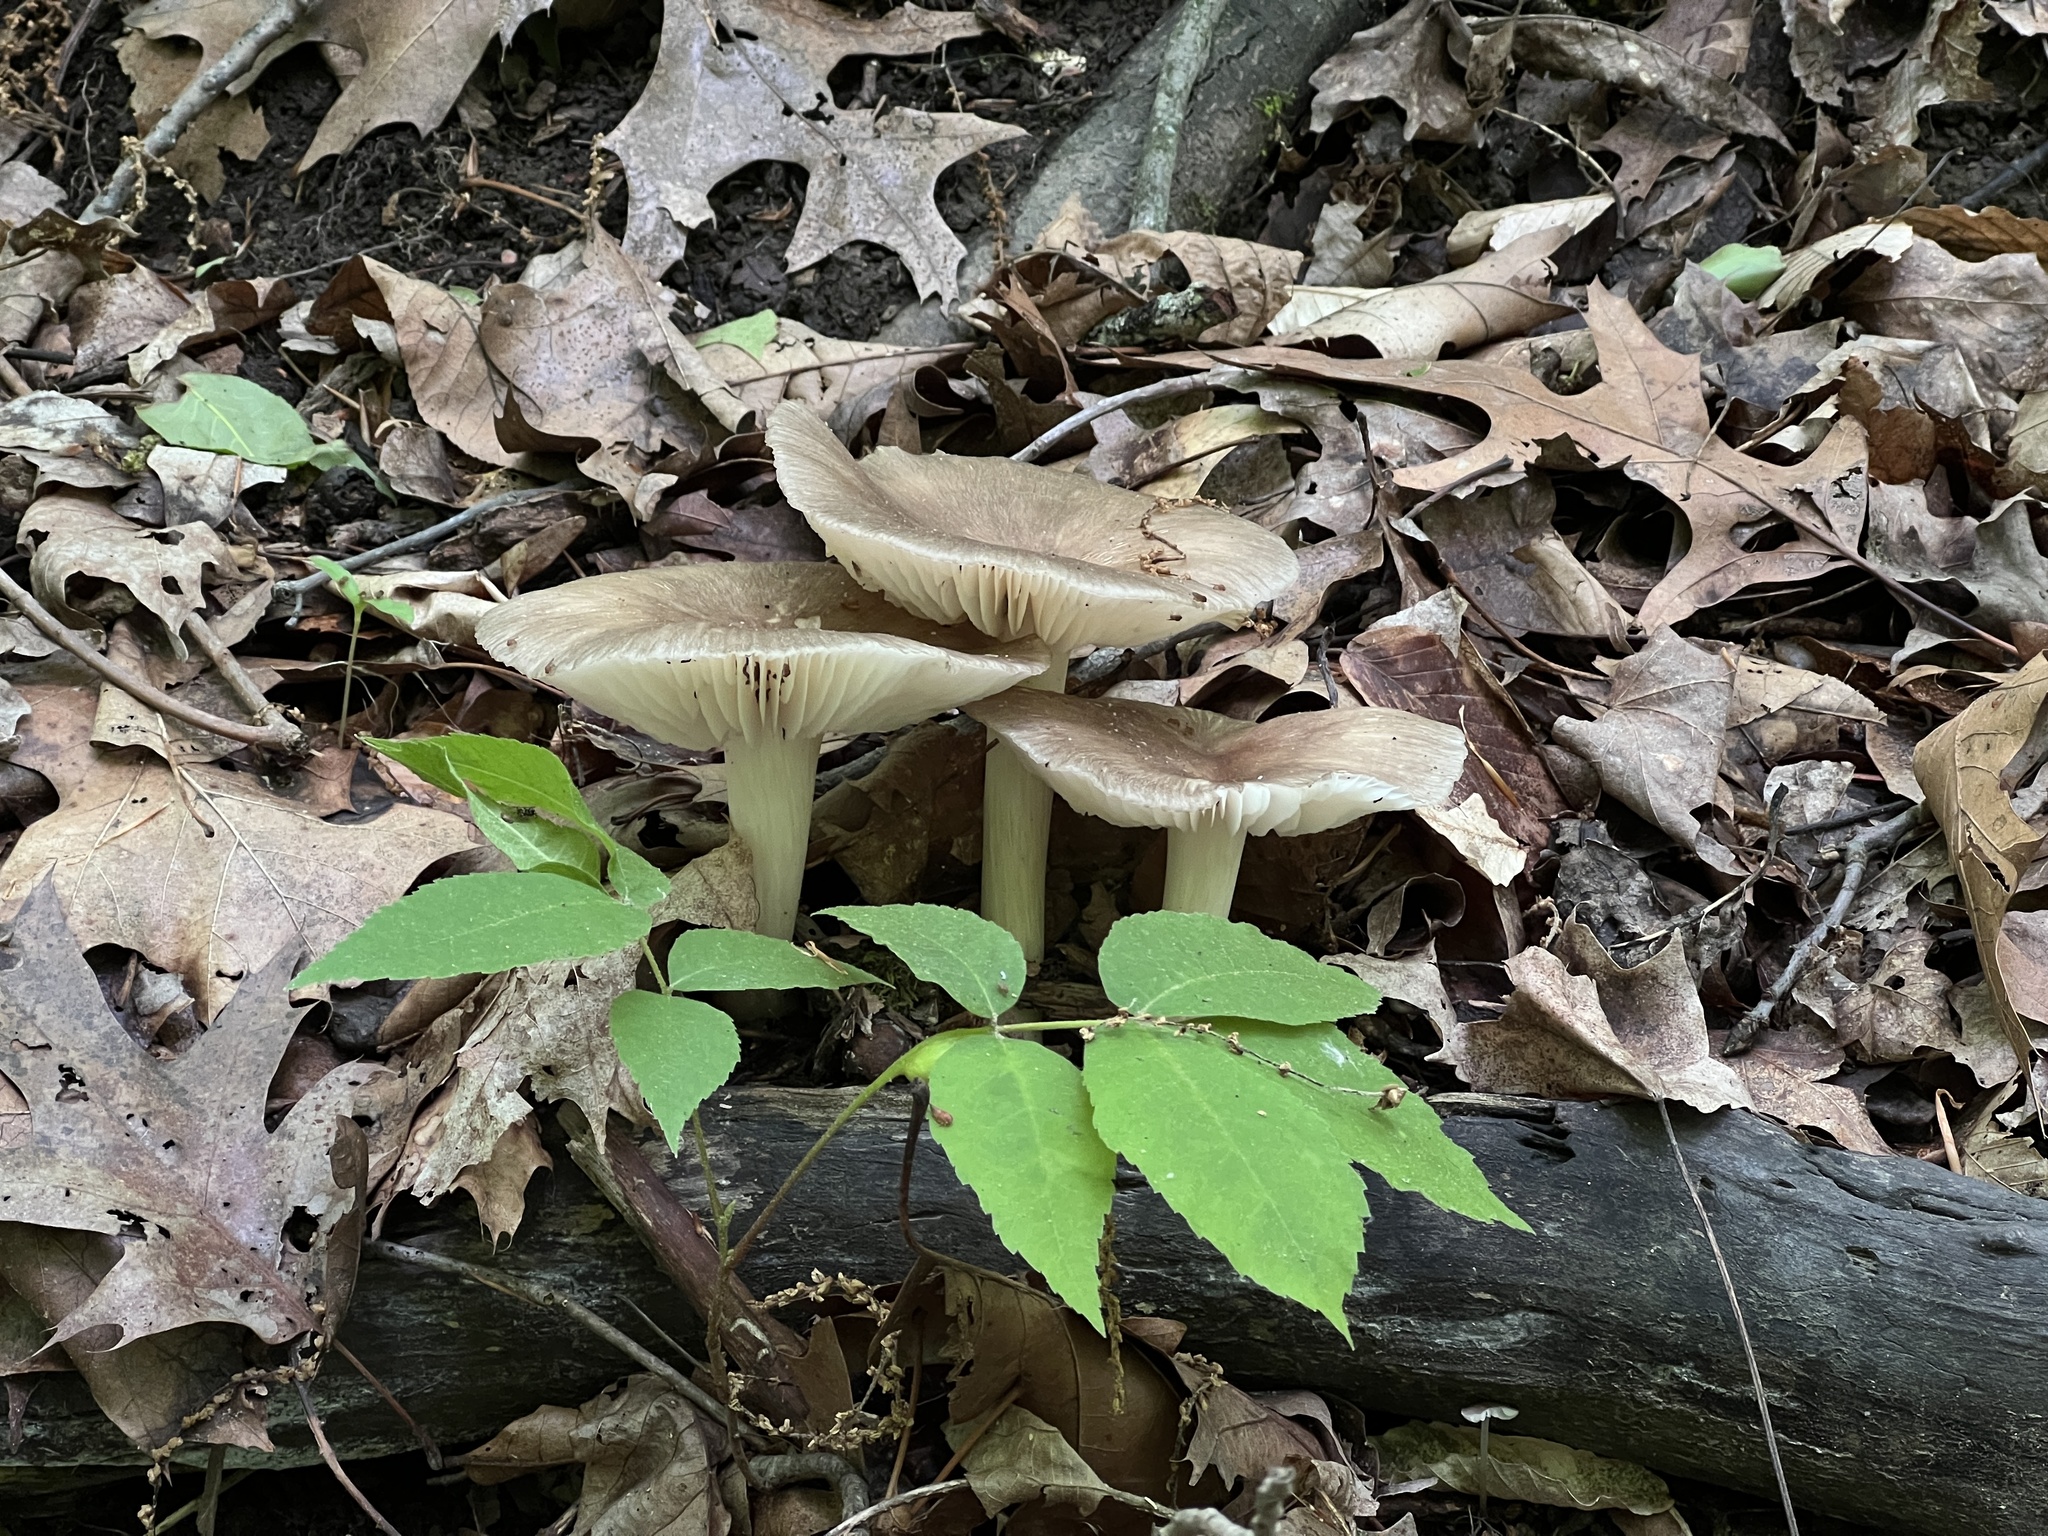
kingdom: Fungi
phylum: Basidiomycota
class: Agaricomycetes
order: Agaricales
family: Tricholomataceae
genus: Megacollybia
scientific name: Megacollybia rodmanii
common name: Eastern american platterful mushroom
